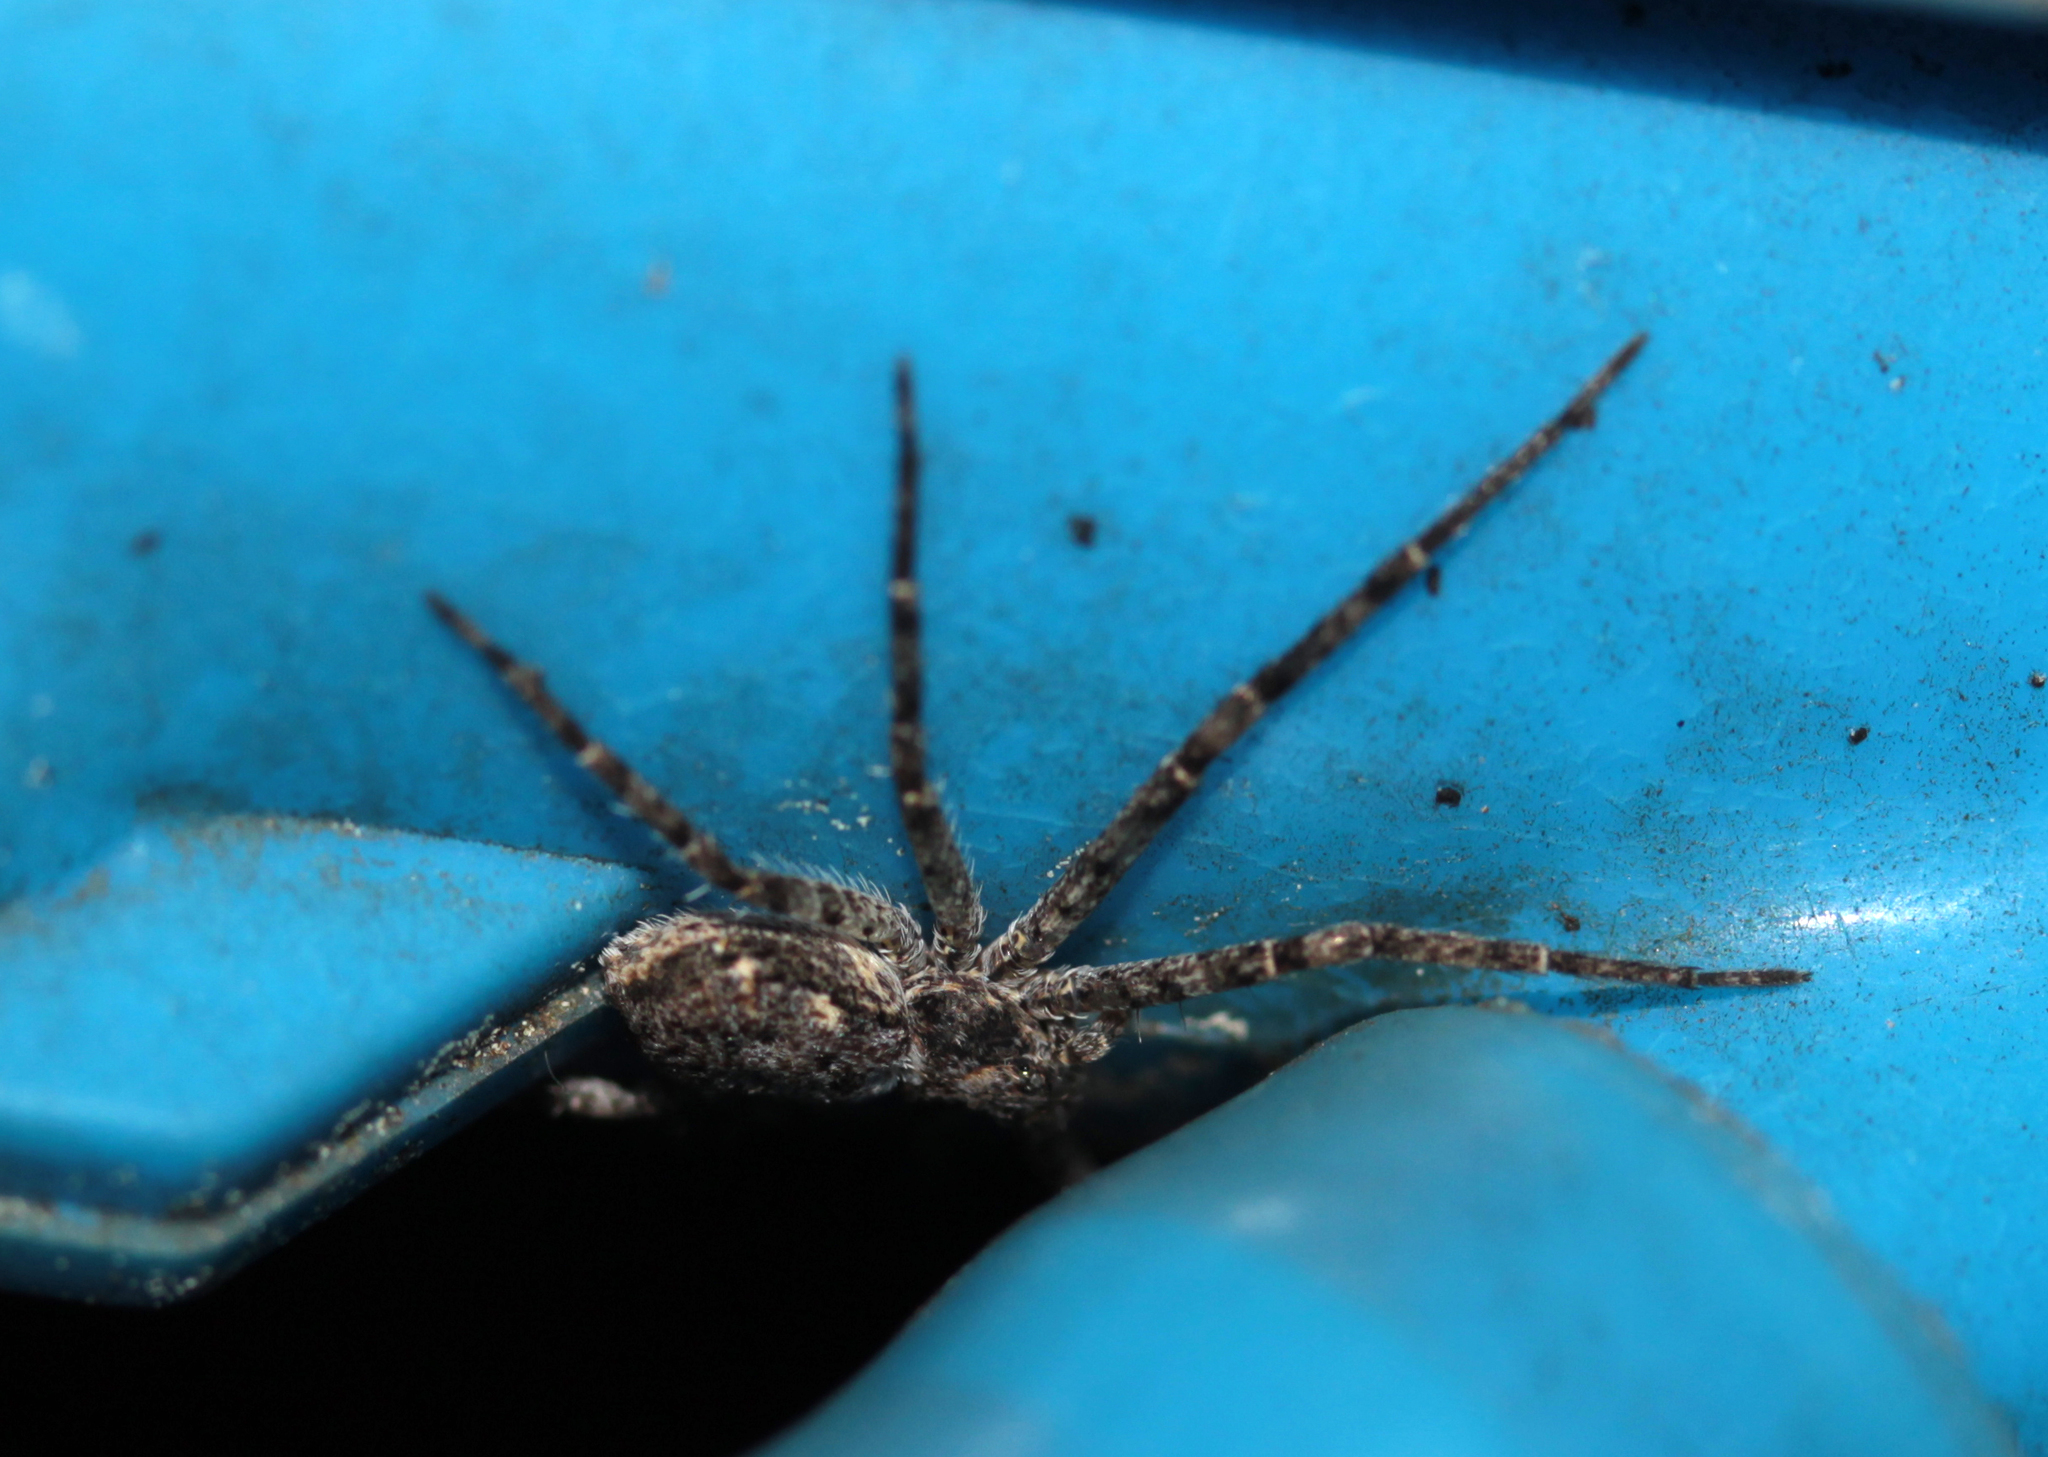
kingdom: Animalia
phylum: Arthropoda
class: Arachnida
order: Araneae
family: Philodromidae
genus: Philodromus
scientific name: Philodromus
